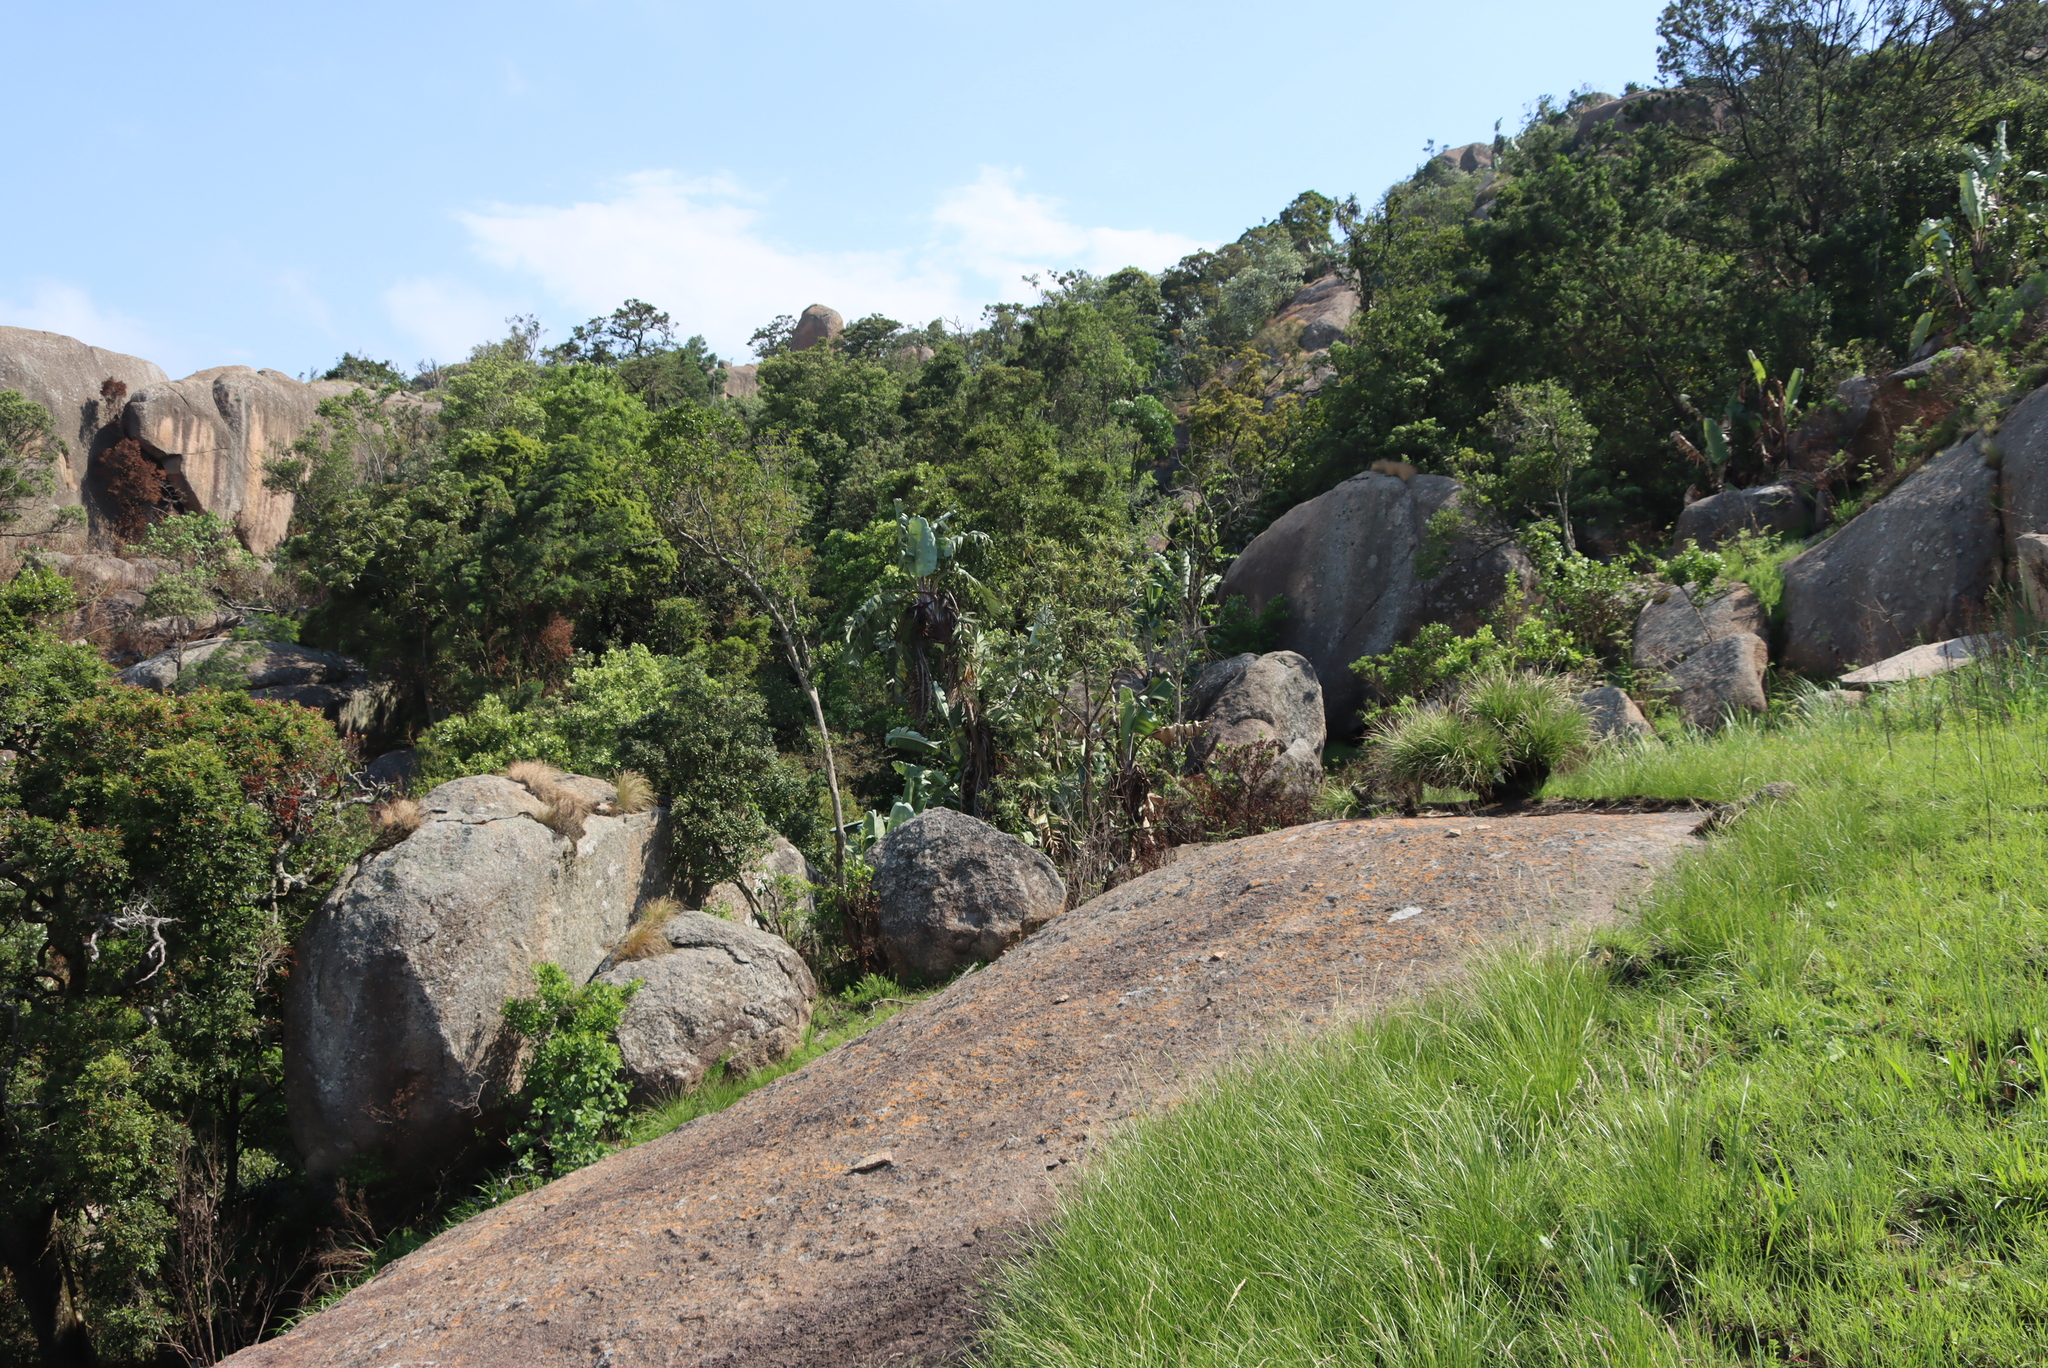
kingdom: Plantae
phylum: Tracheophyta
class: Liliopsida
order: Zingiberales
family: Strelitziaceae
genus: Strelitzia
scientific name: Strelitzia caudata
